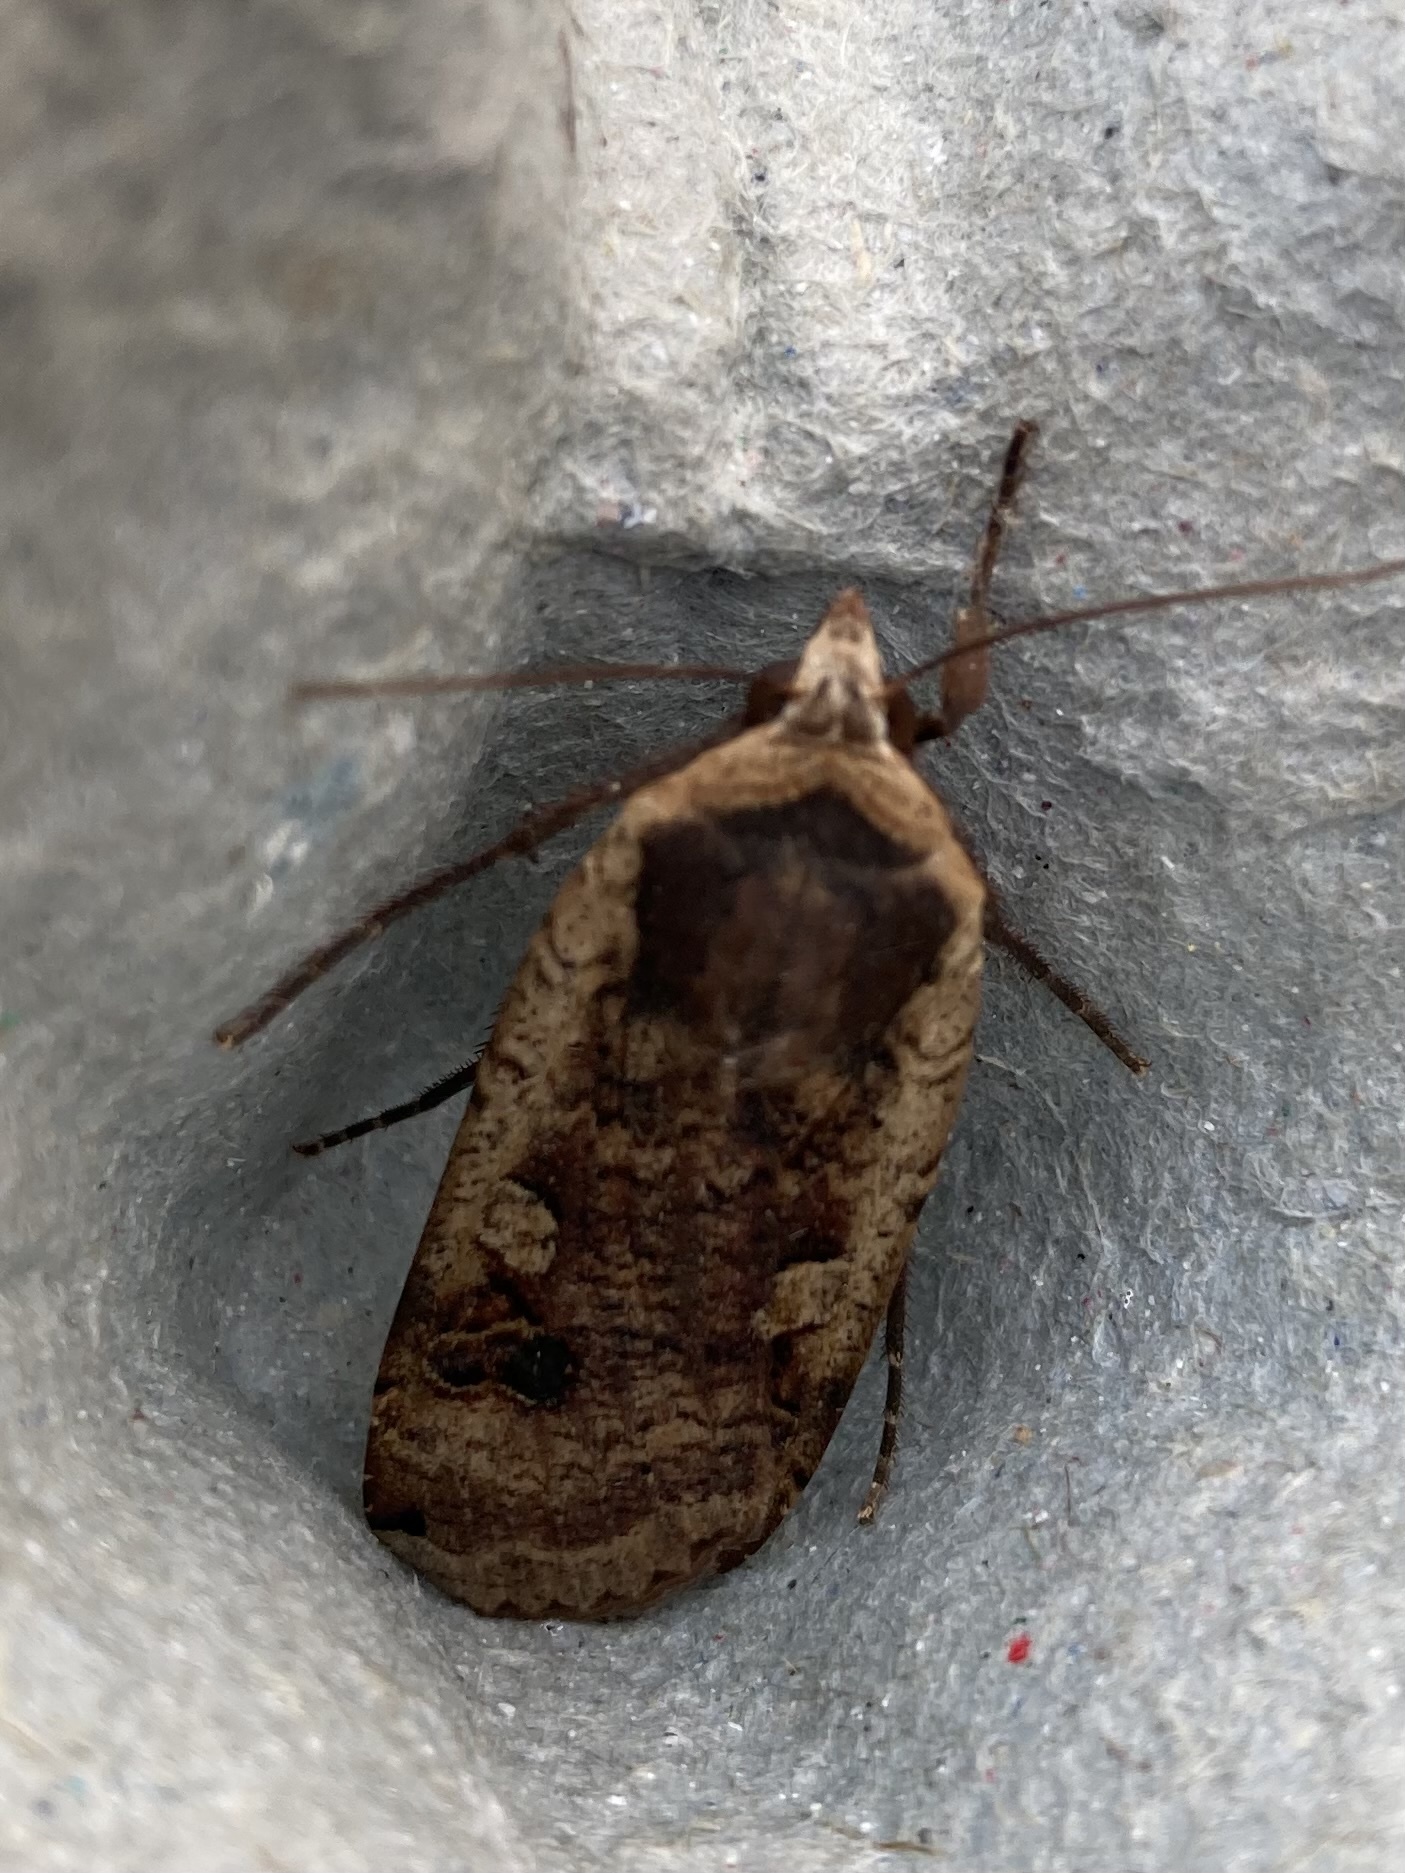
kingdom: Animalia
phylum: Arthropoda
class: Insecta
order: Lepidoptera
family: Noctuidae
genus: Noctua
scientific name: Noctua pronuba
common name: Large yellow underwing
